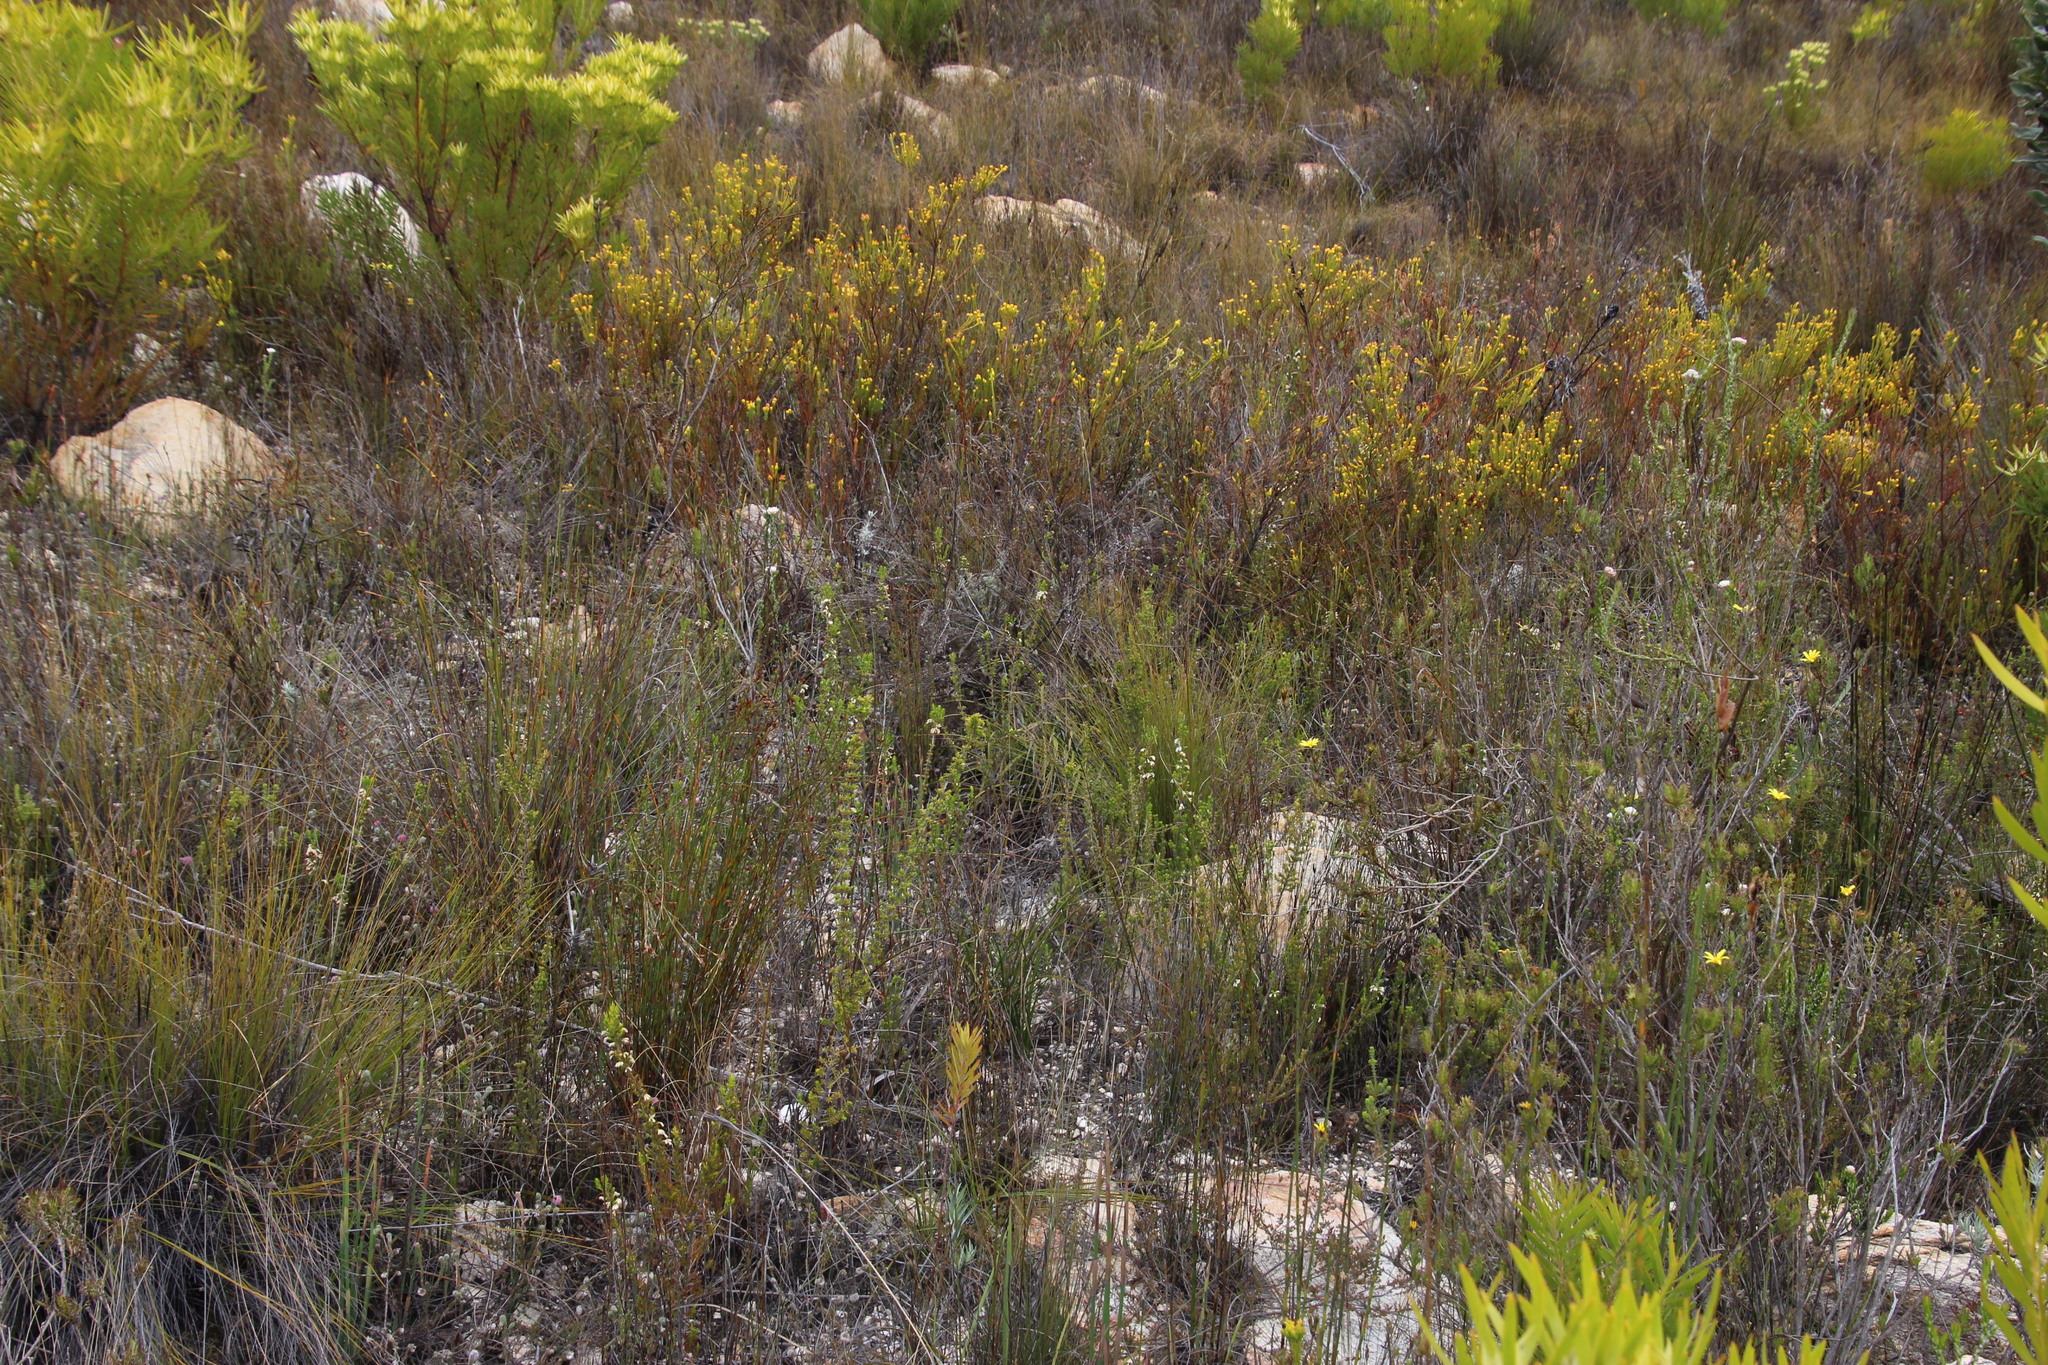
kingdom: Plantae
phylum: Tracheophyta
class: Magnoliopsida
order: Ericales
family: Ericaceae
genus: Erica
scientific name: Erica imbricata
